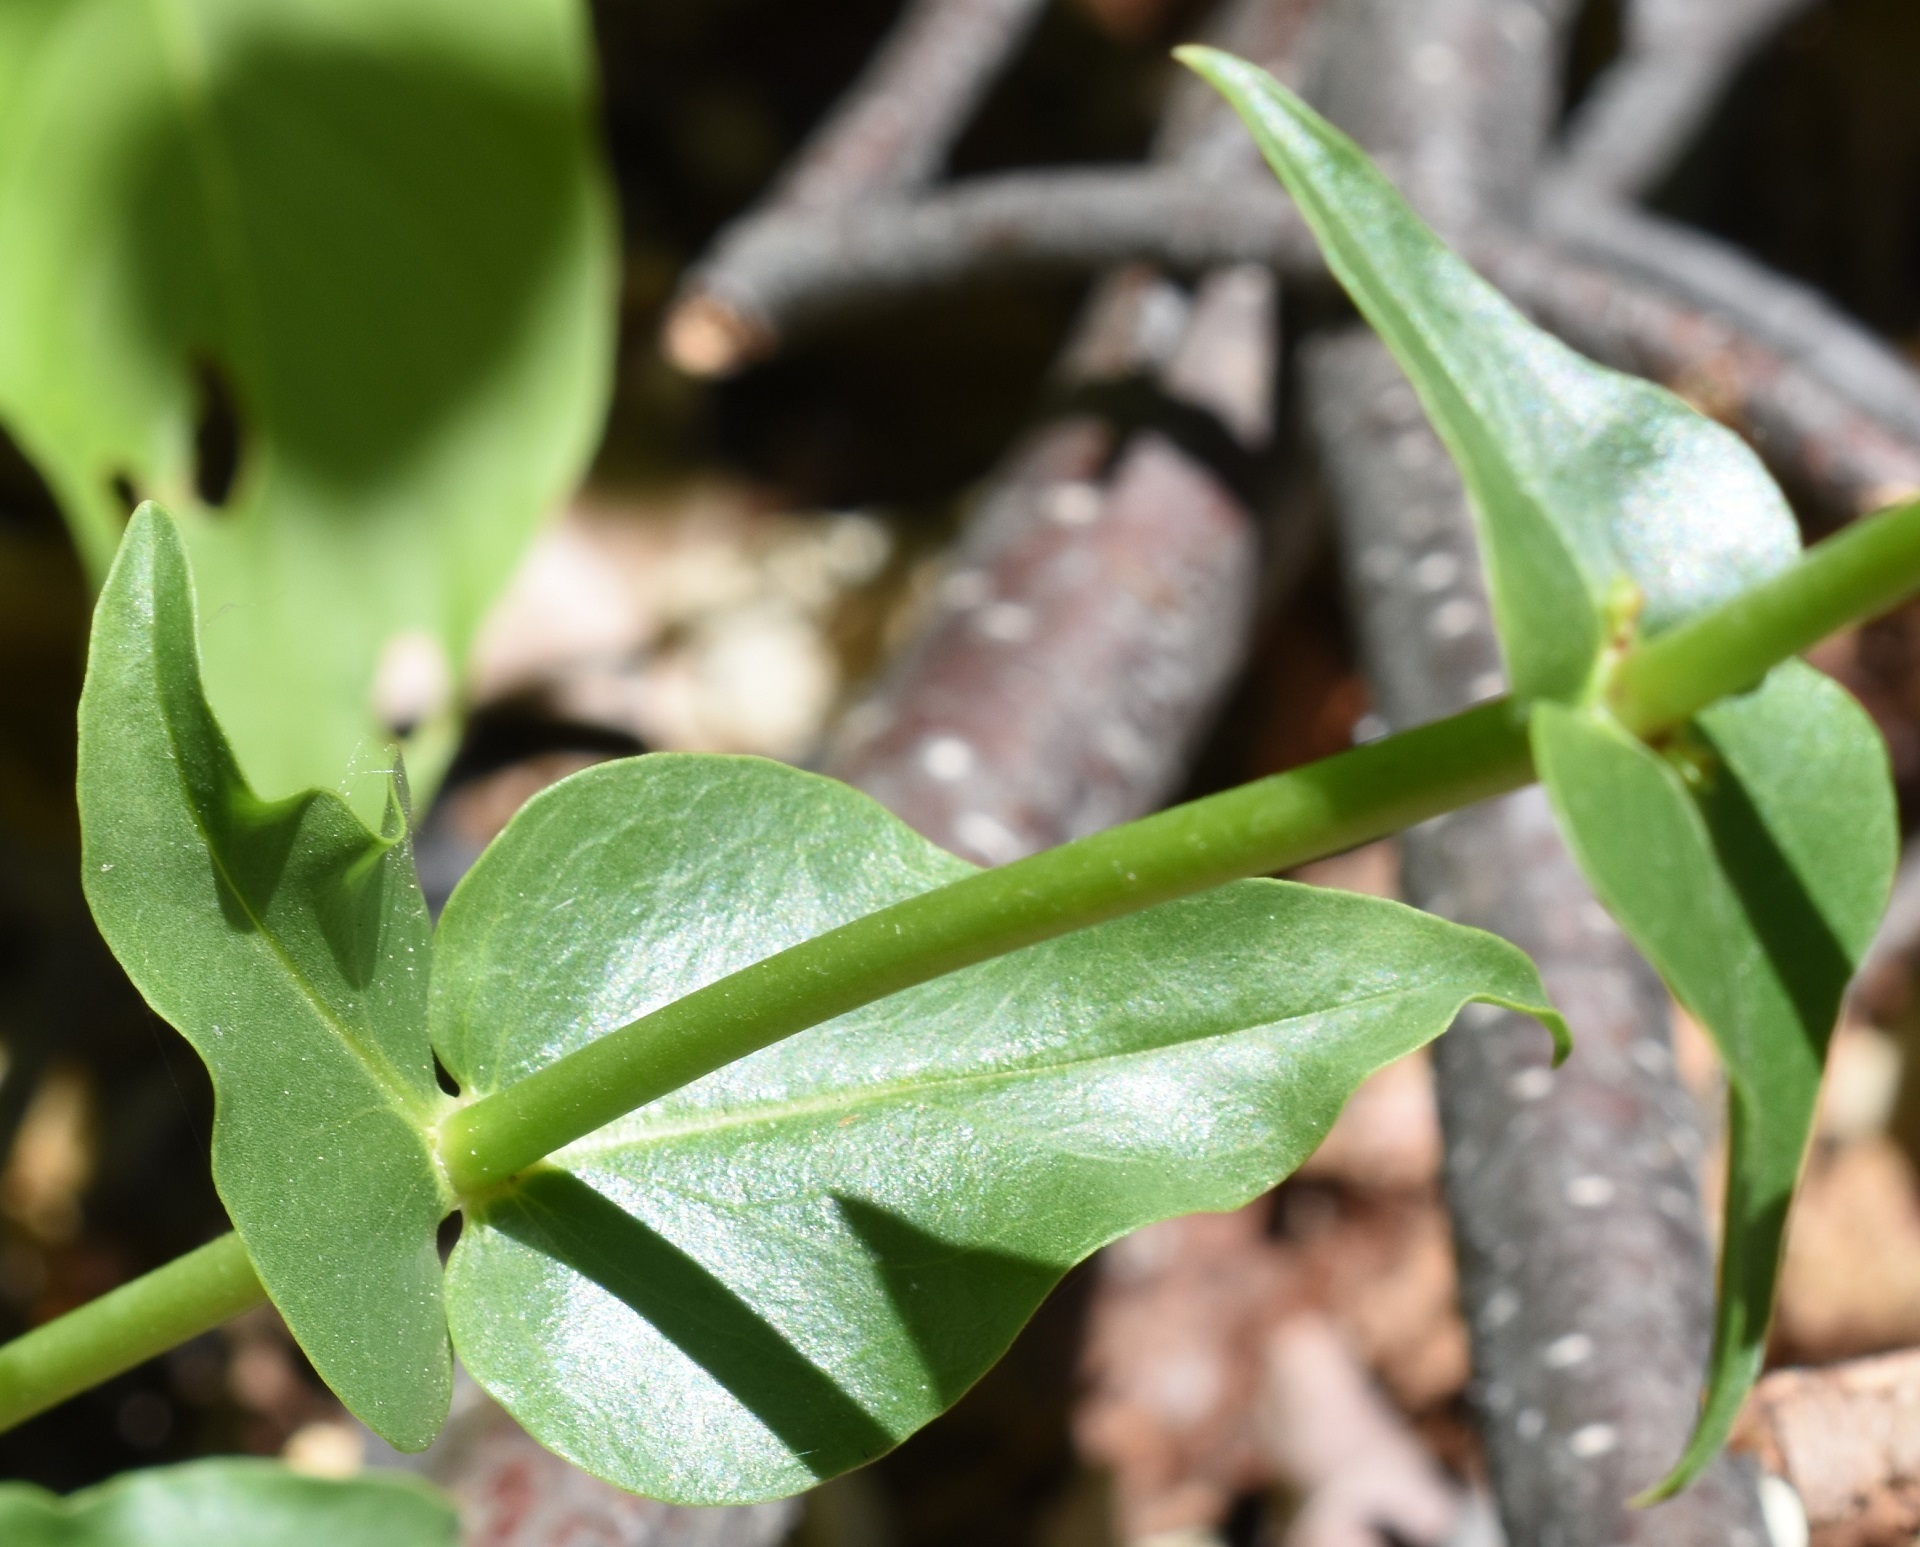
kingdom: Plantae
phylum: Tracheophyta
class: Magnoliopsida
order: Lamiales
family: Plantaginaceae
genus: Penstemon
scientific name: Penstemon eatonii
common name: Eaton's penstemon
